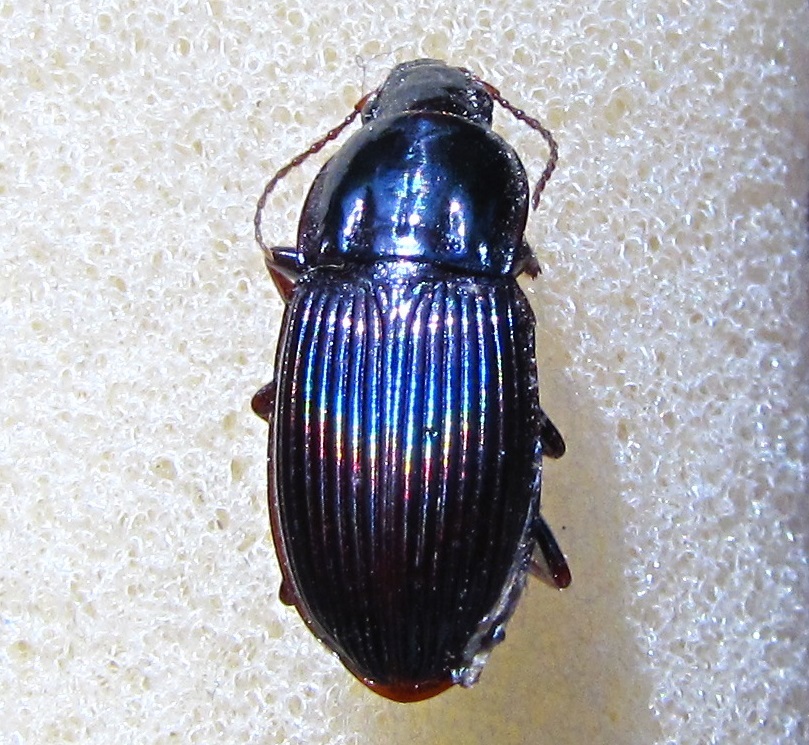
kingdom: Animalia
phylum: Arthropoda
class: Insecta
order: Coleoptera
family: Carabidae
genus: Abacidus
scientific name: Abacidus sculptus
